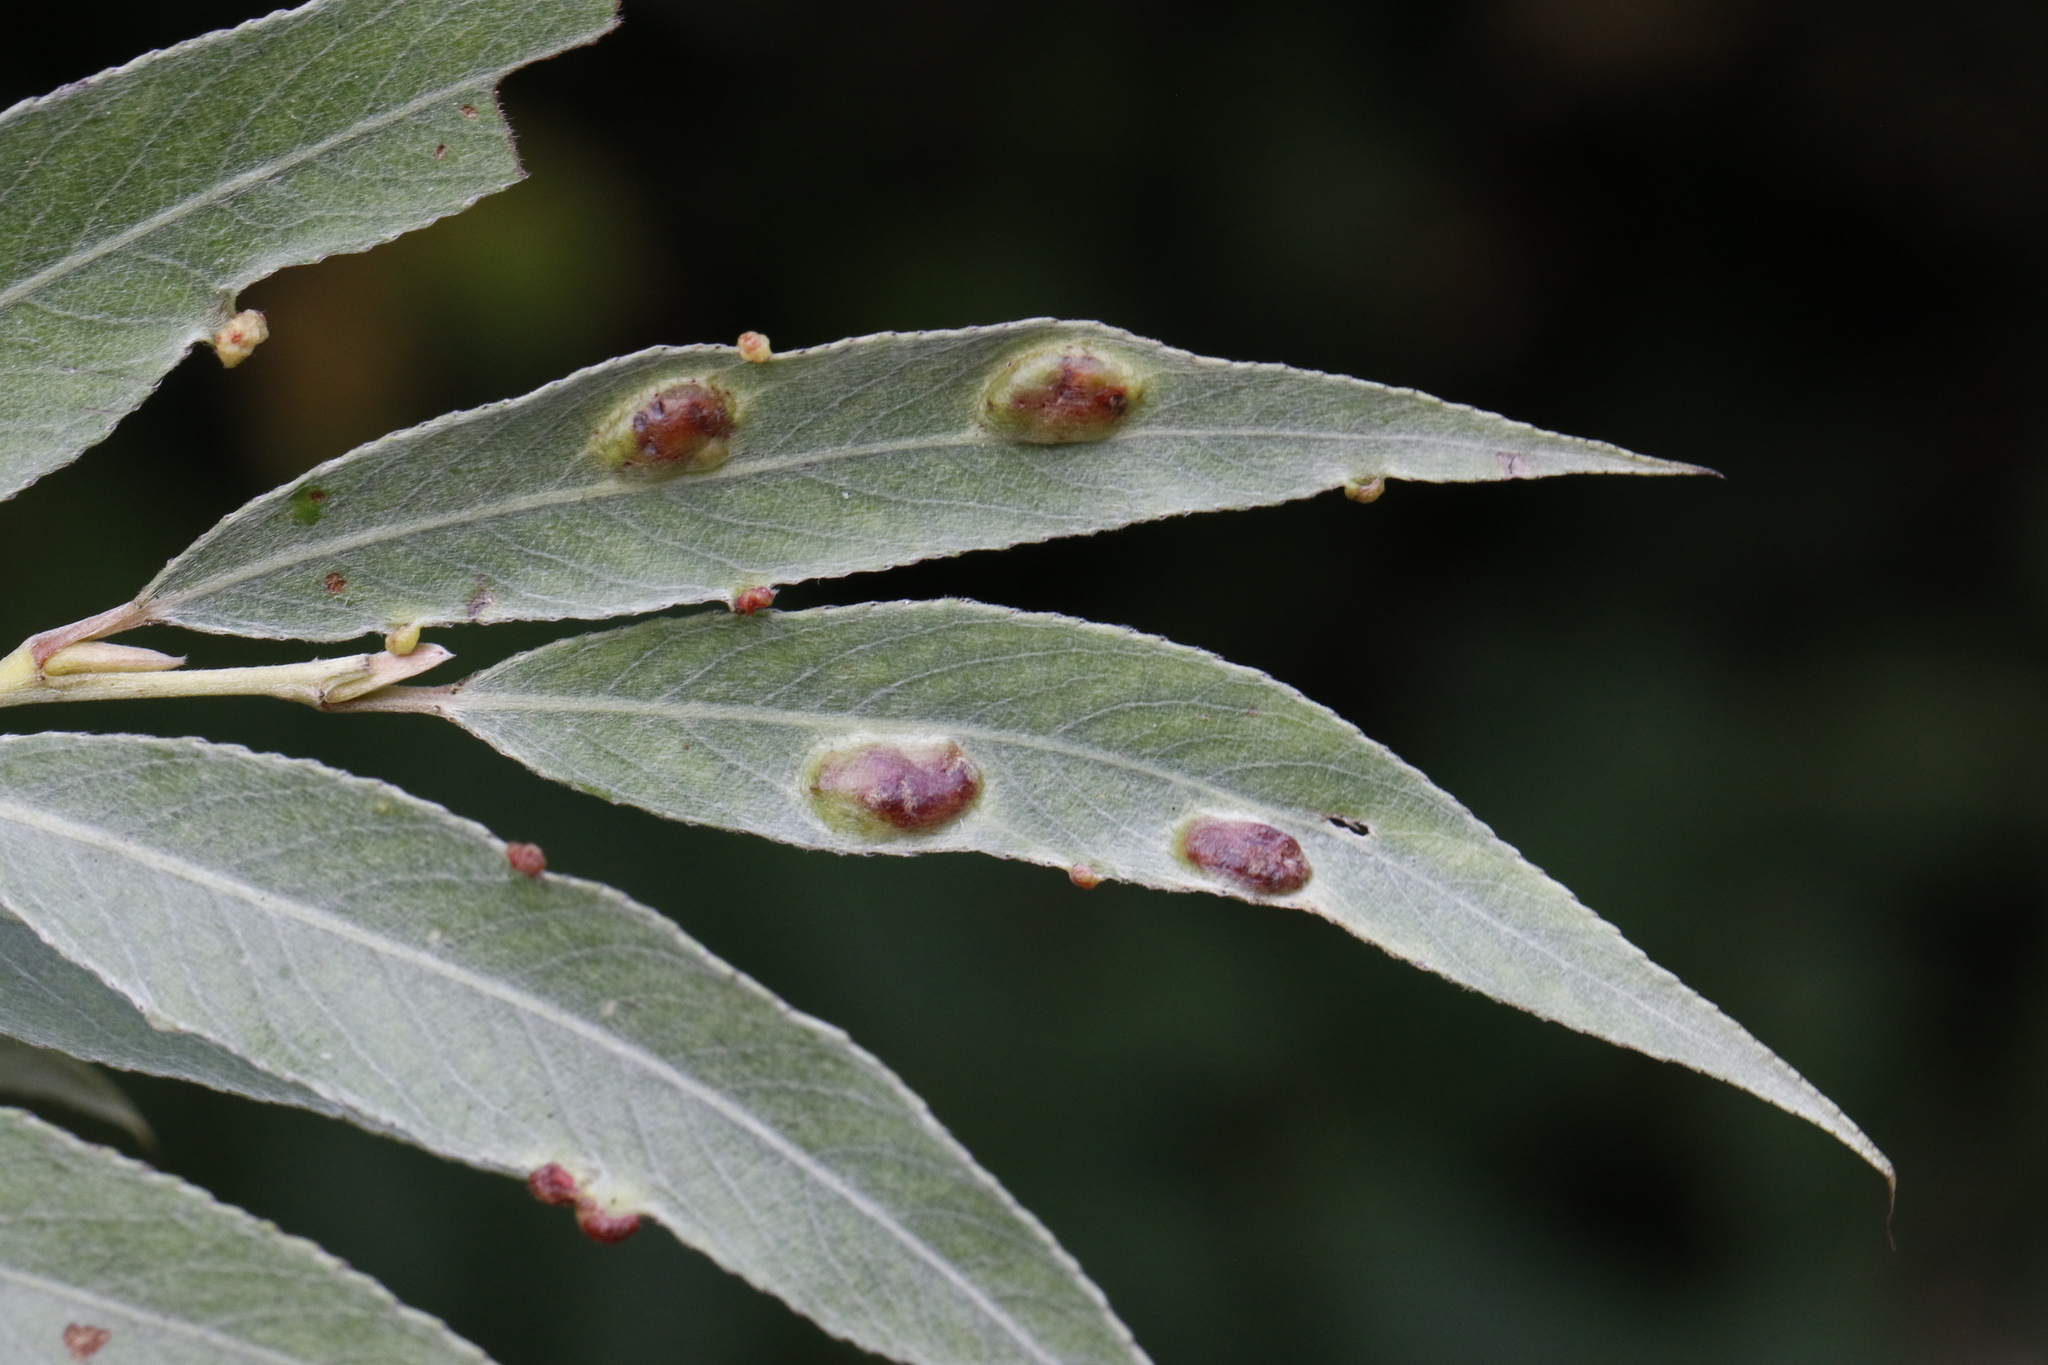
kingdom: Animalia
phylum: Arthropoda
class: Insecta
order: Hymenoptera
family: Tenthredinidae
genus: Pontania
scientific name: Pontania proxima
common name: Common sawfly
